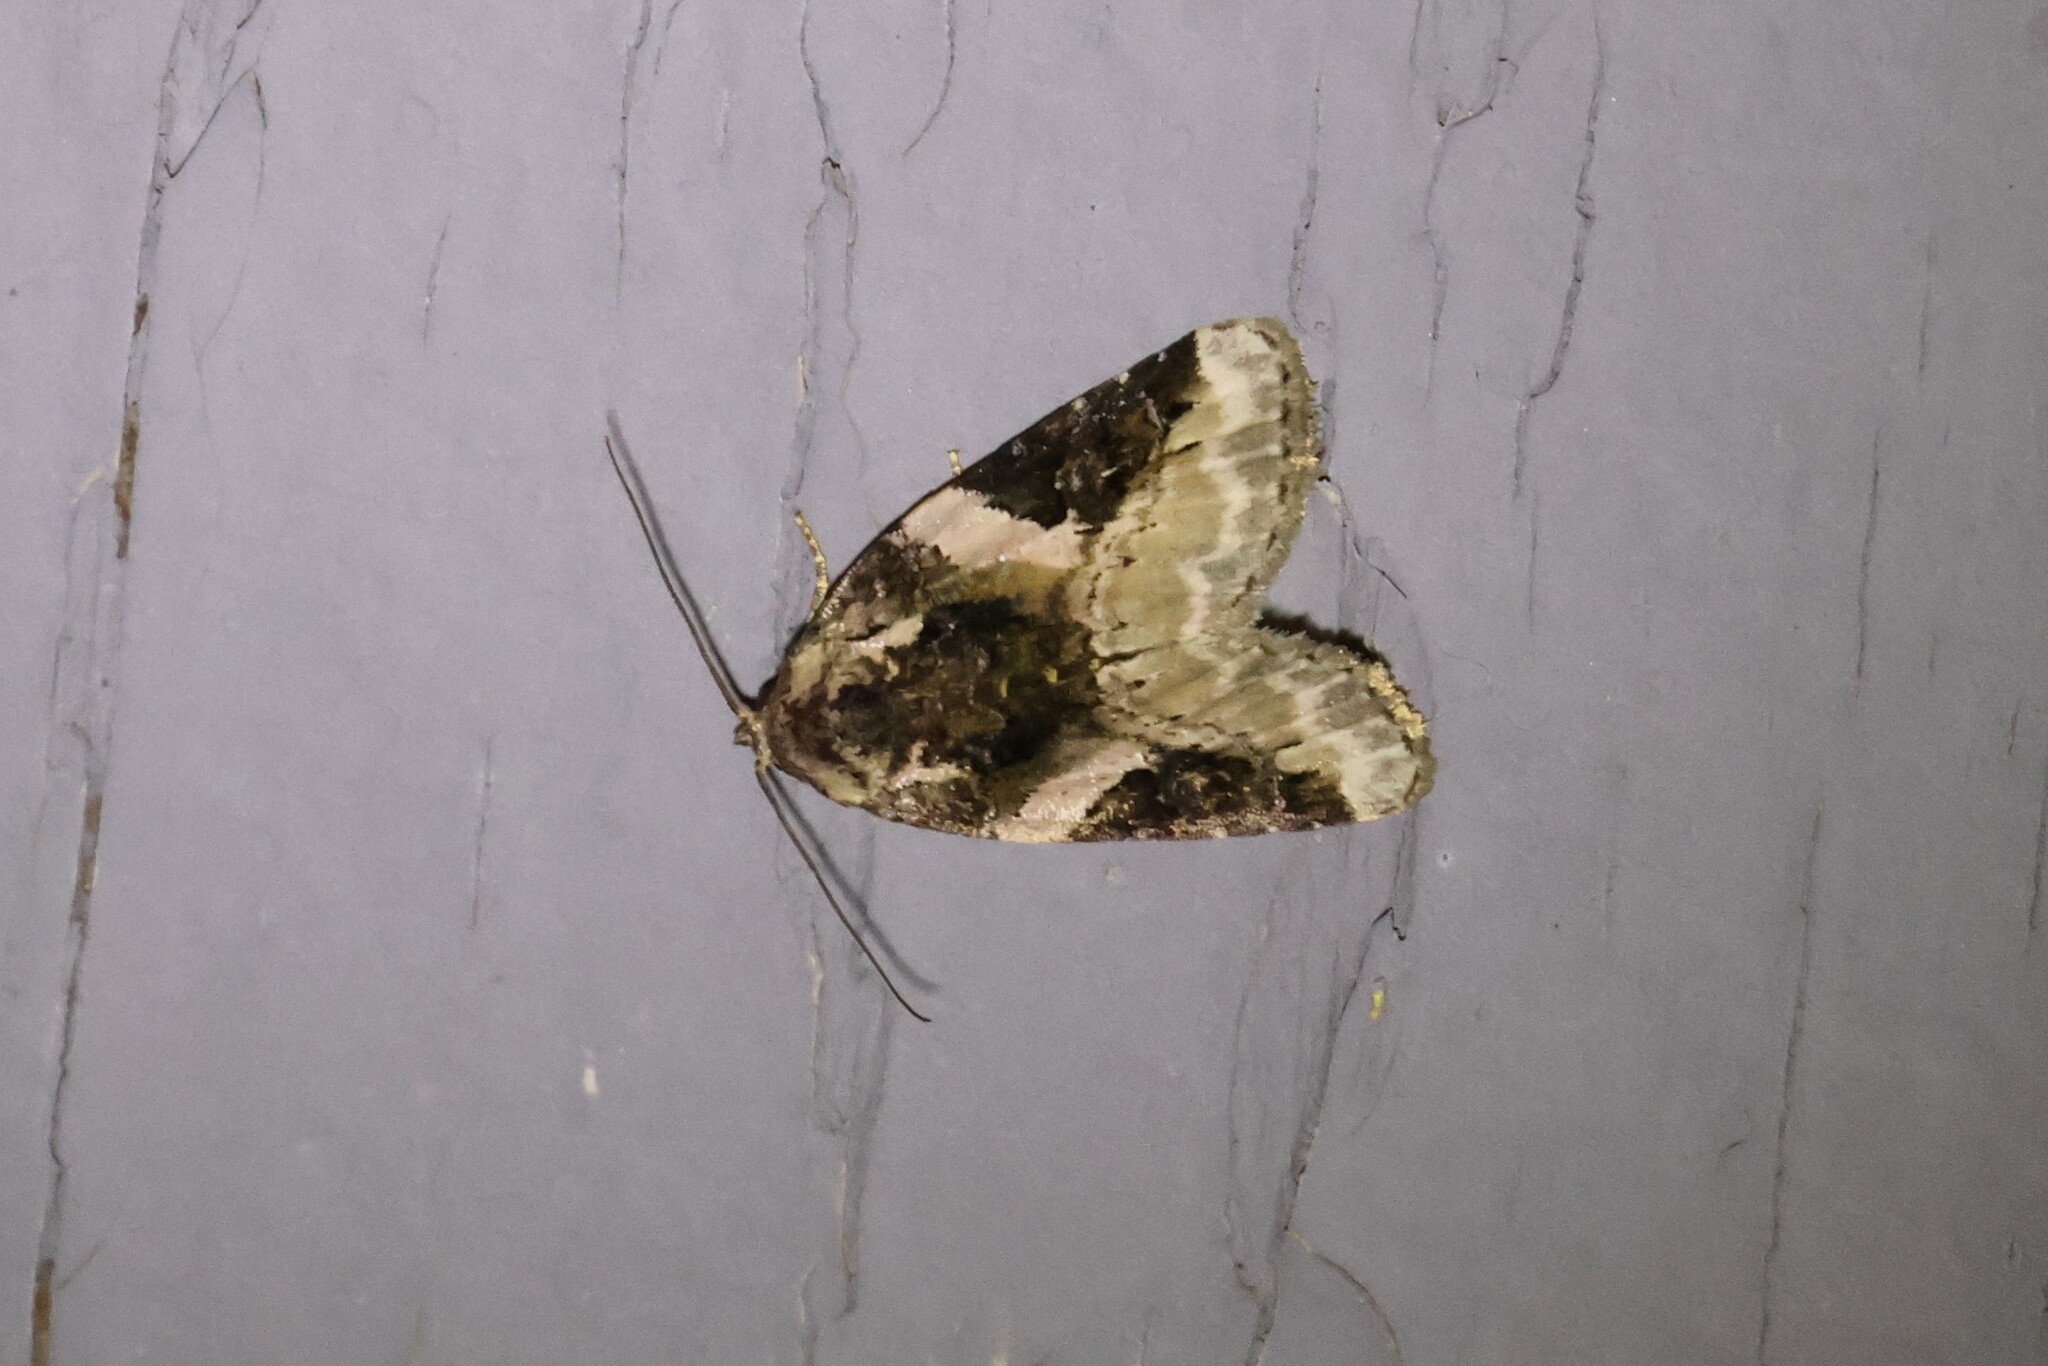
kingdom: Animalia
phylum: Arthropoda
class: Insecta
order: Lepidoptera
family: Noctuidae
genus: Pseudeustrotia
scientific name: Pseudeustrotia carneola
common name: Pink-barred lithacodia moth
